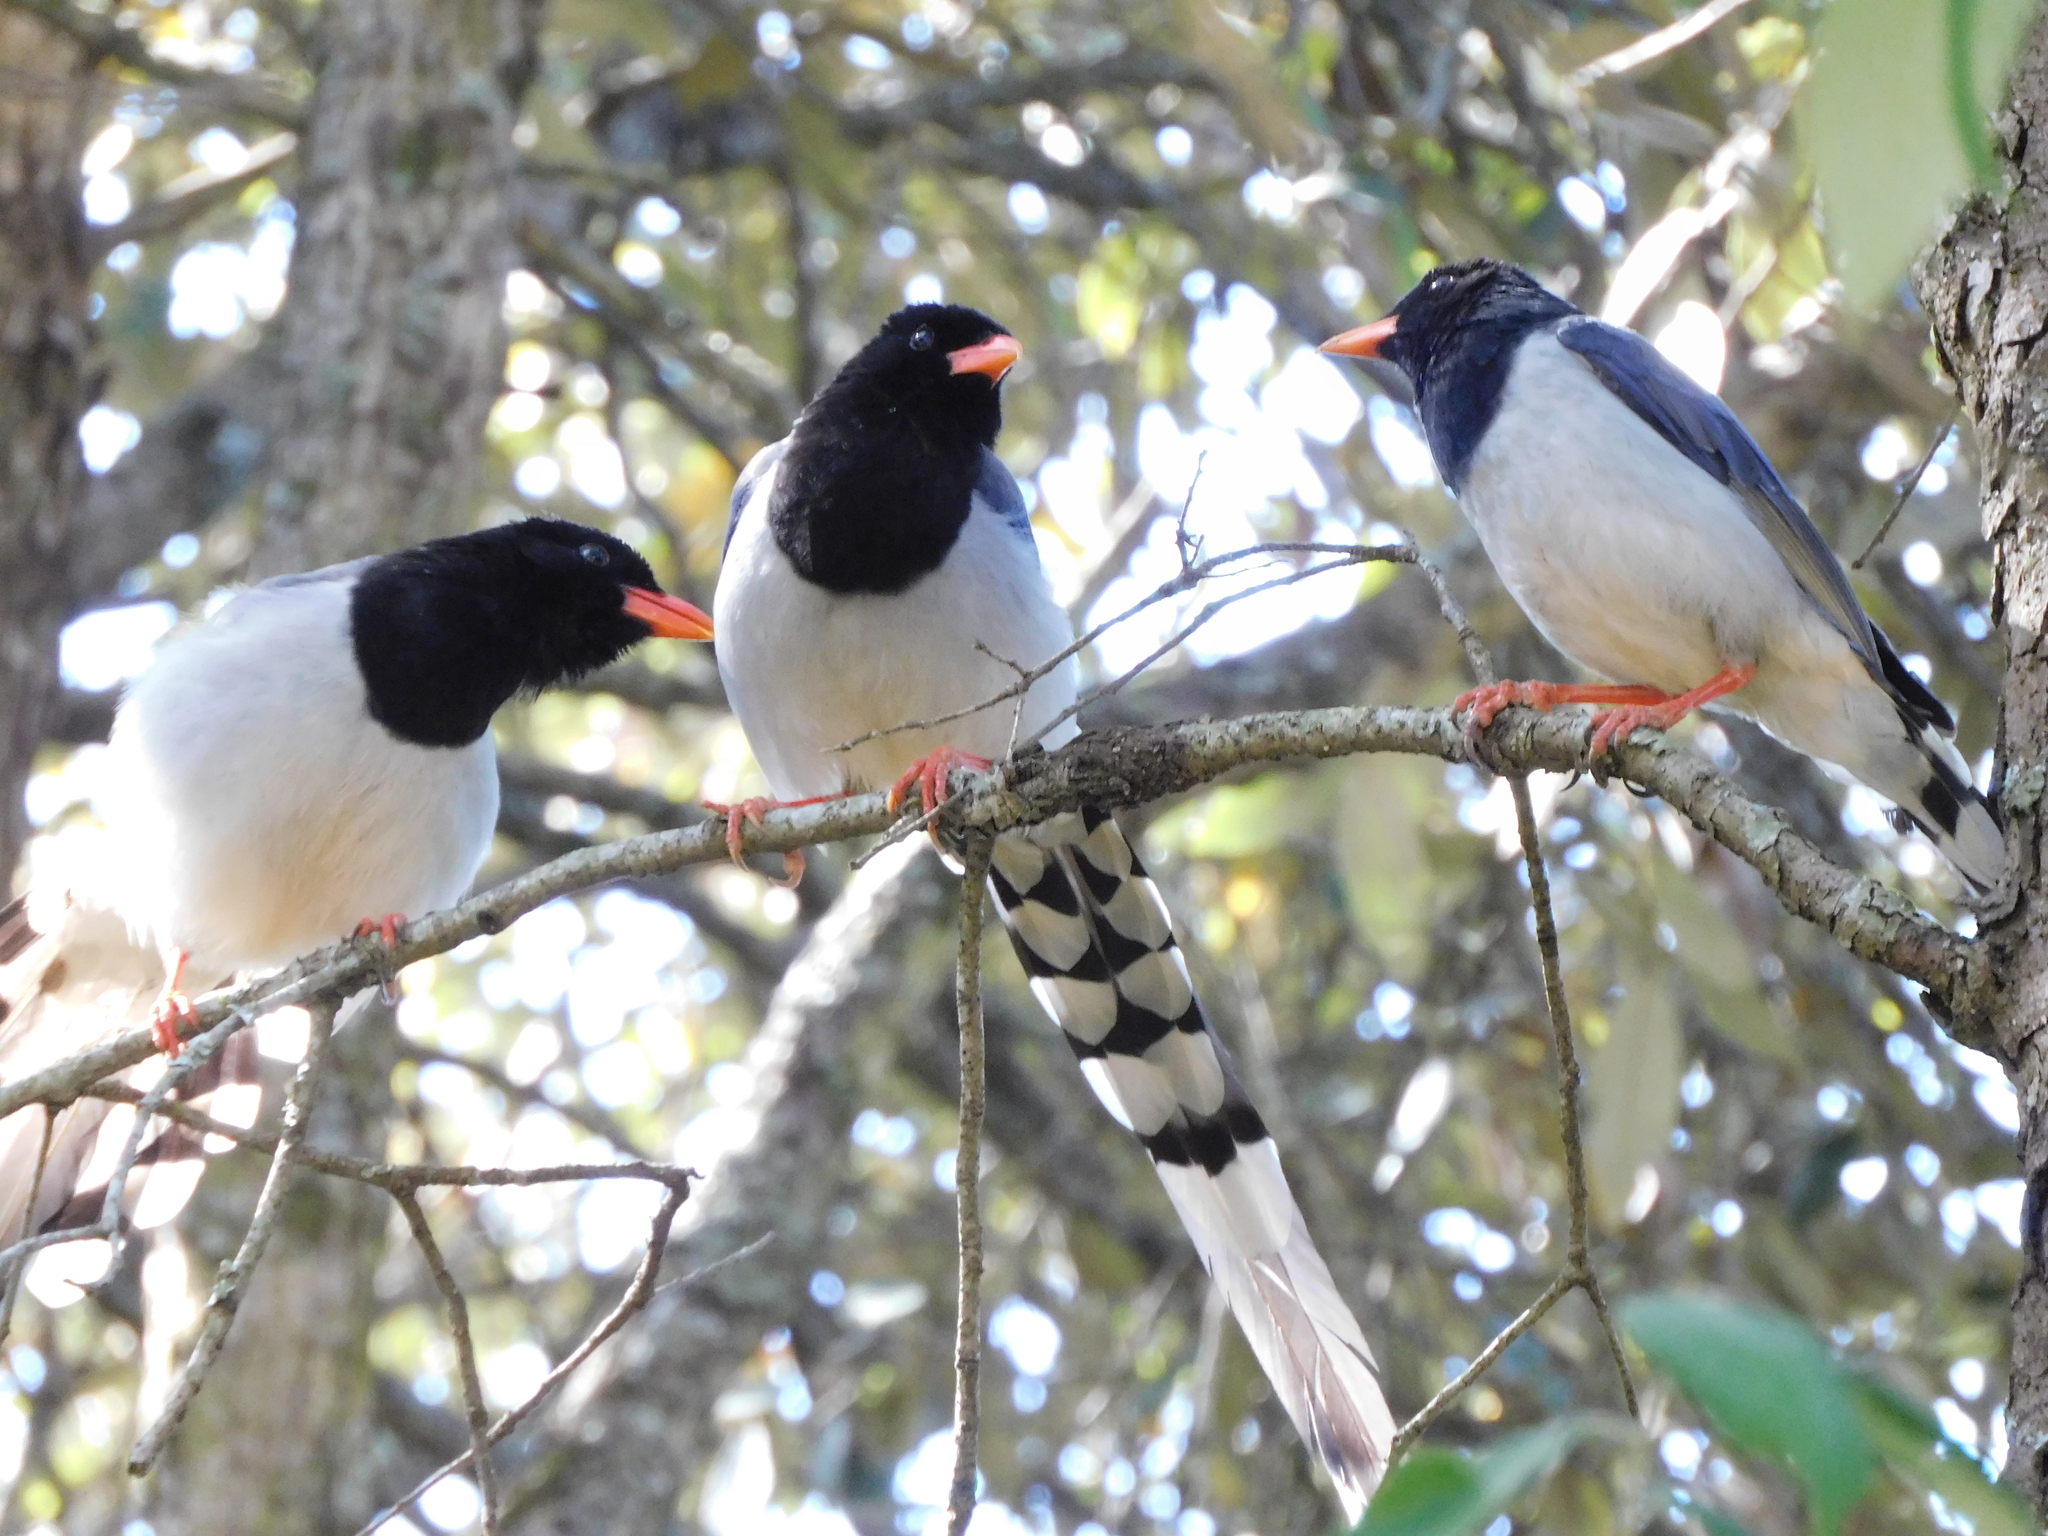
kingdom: Animalia
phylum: Chordata
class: Aves
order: Passeriformes
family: Corvidae
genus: Urocissa
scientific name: Urocissa erythroryncha
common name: Red-billed blue magpie
